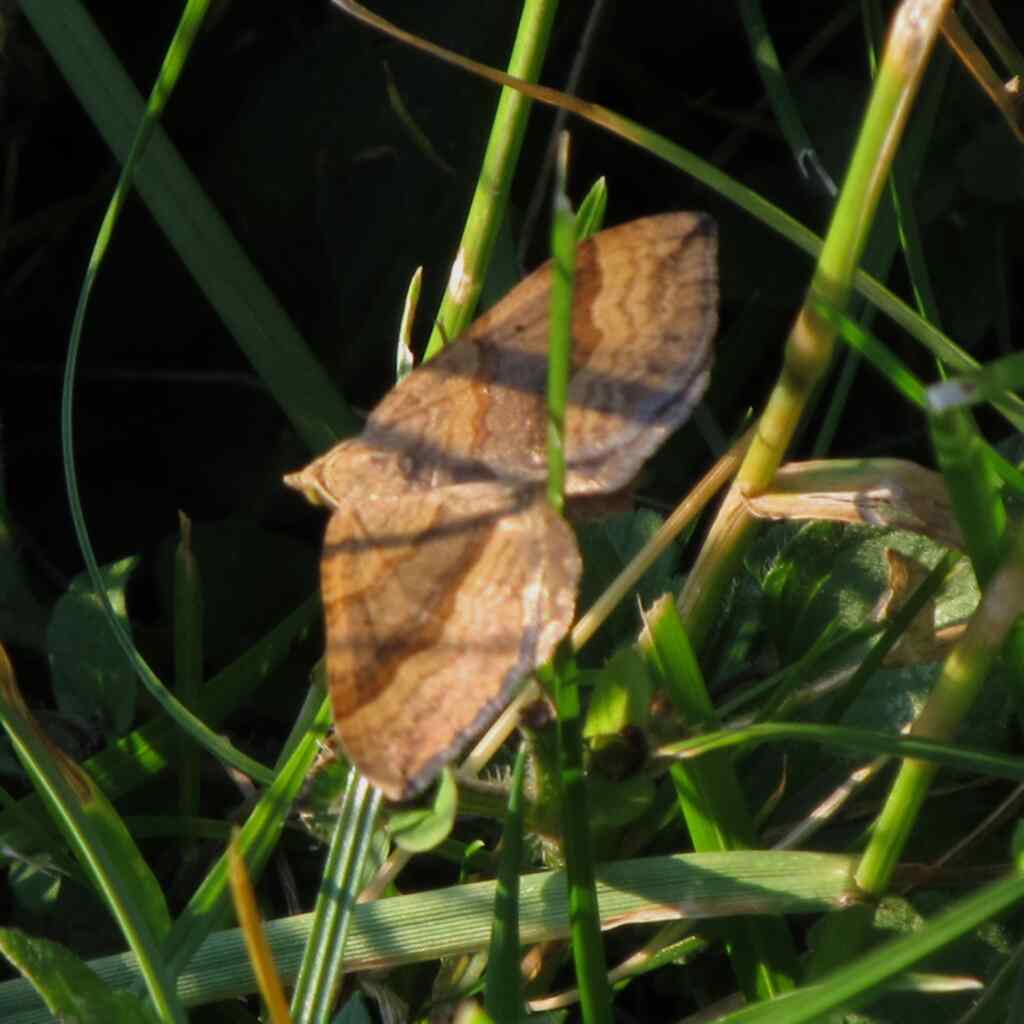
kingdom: Animalia
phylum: Arthropoda
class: Insecta
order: Lepidoptera
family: Geometridae
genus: Scotopteryx
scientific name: Scotopteryx chenopodiata
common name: Shaded broad-bar
